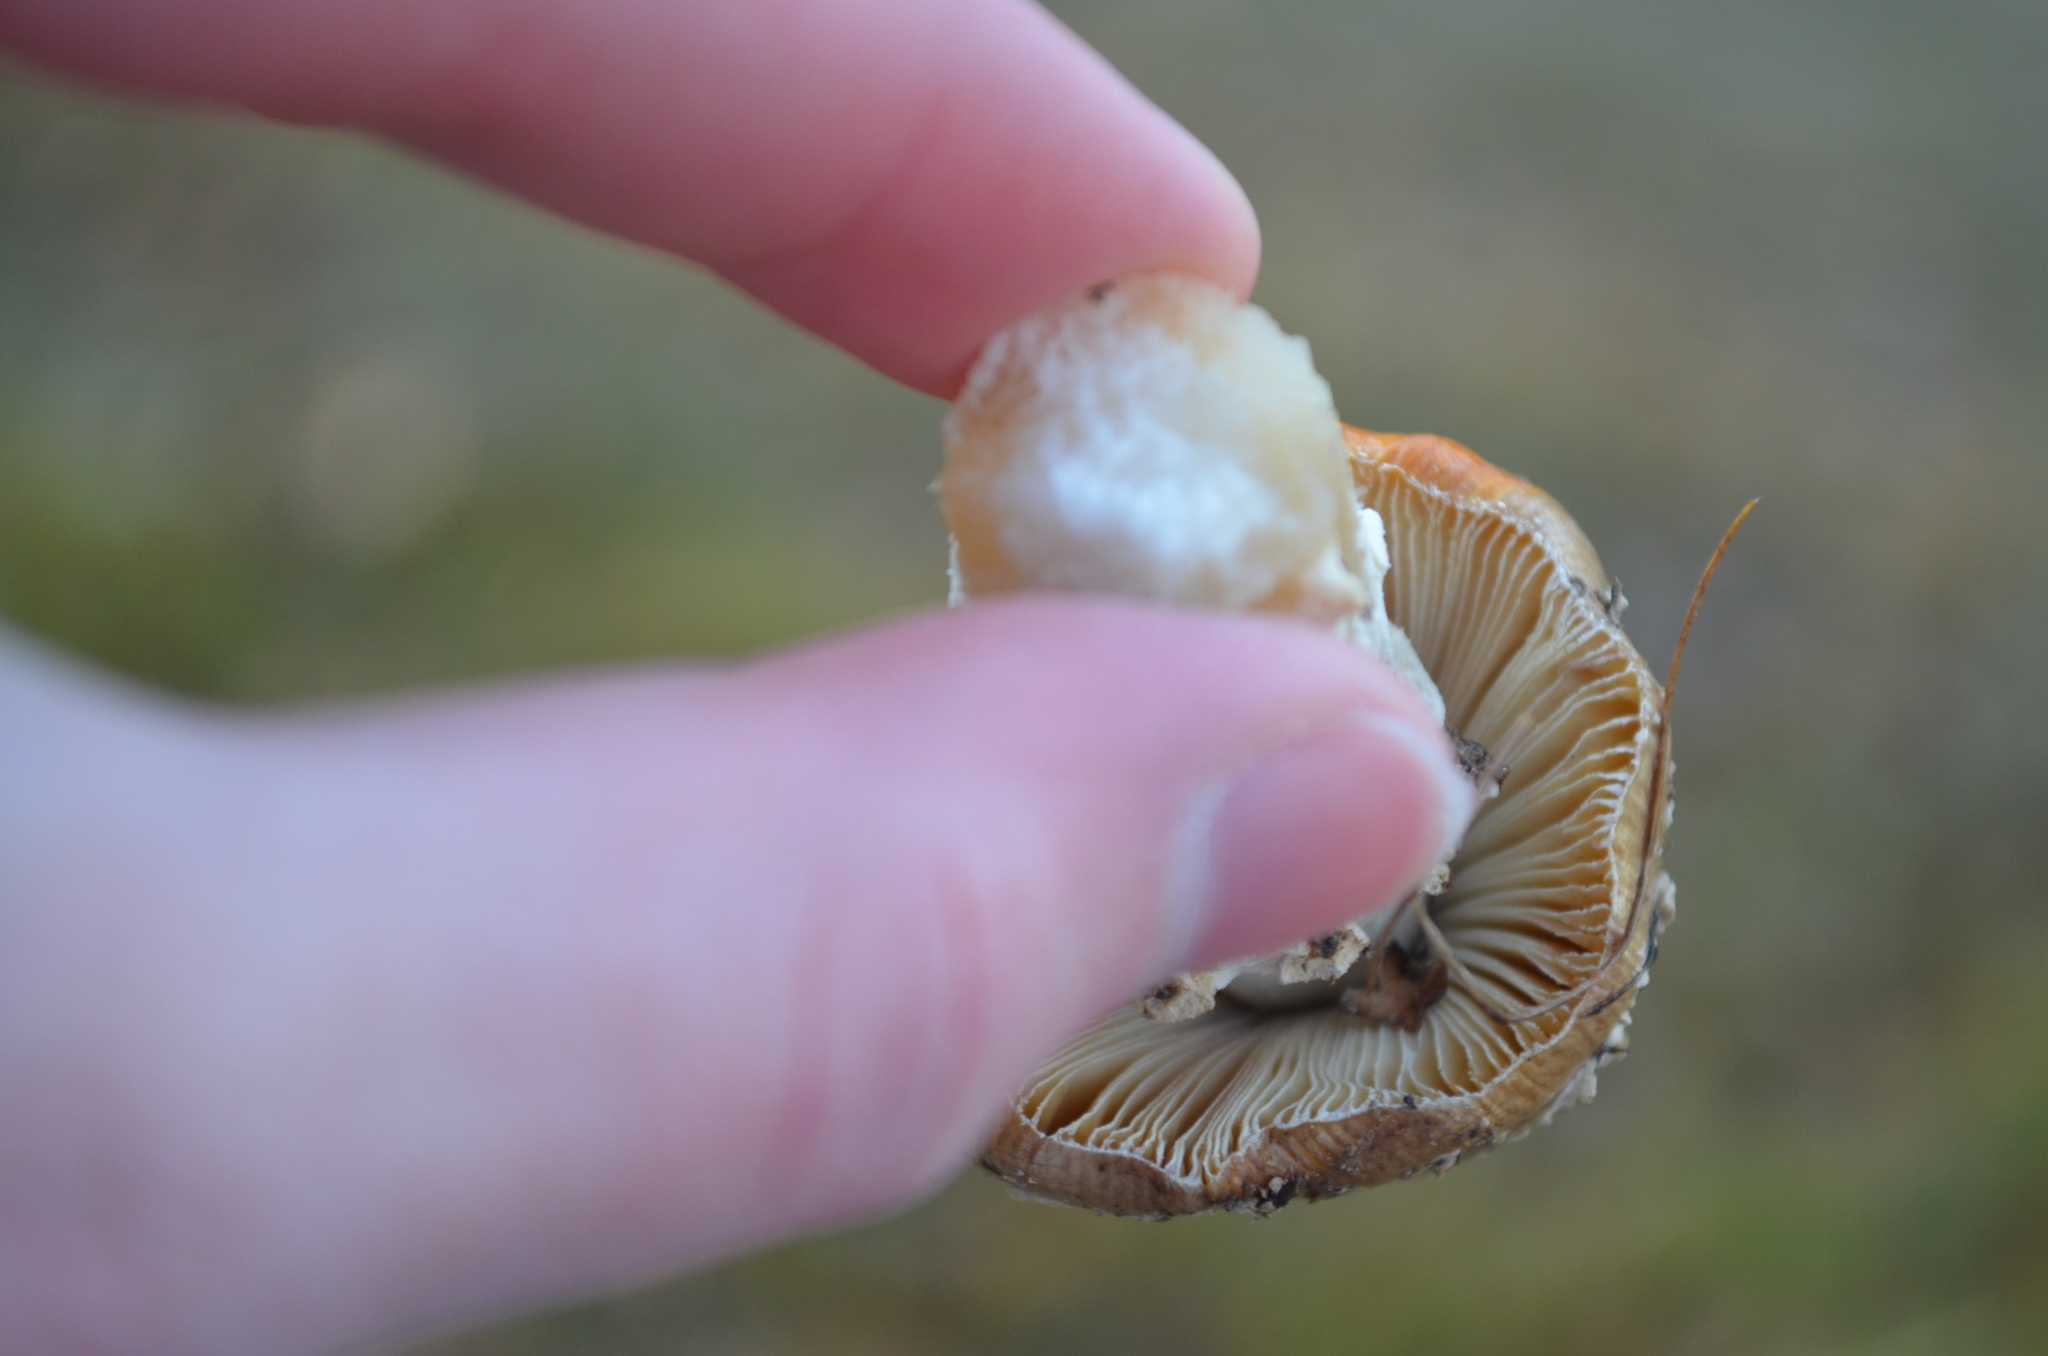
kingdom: Fungi
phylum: Basidiomycota
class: Agaricomycetes
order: Agaricales
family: Amanitaceae
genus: Amanita
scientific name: Amanita muscaria
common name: Fly agaric
